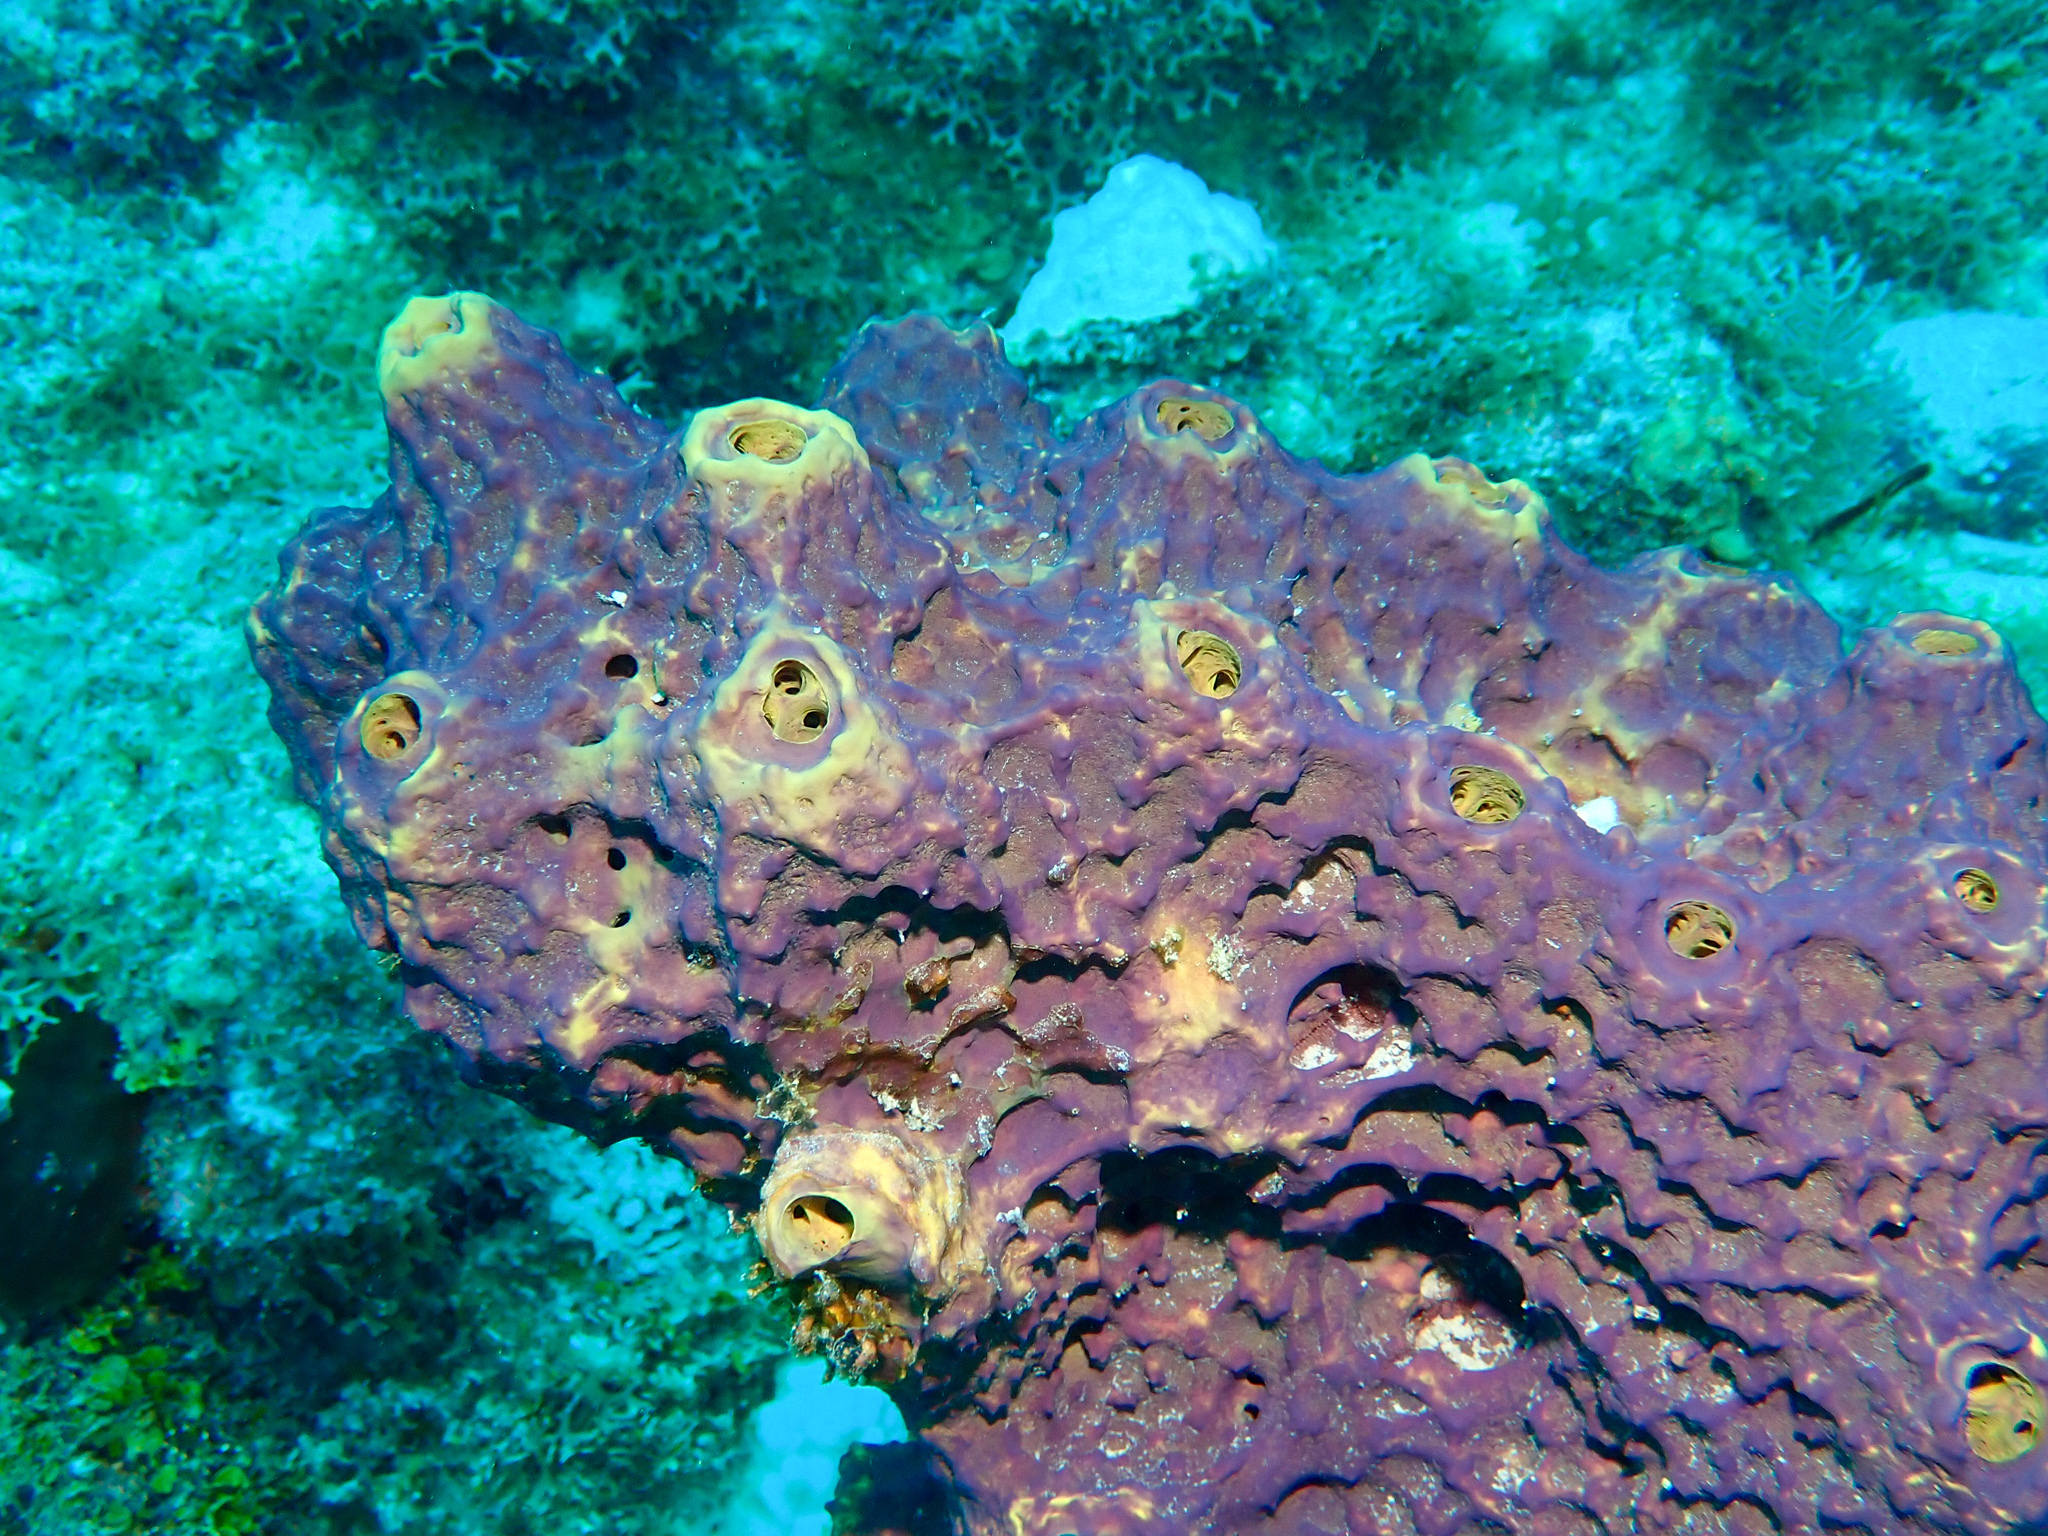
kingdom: Animalia
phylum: Porifera
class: Demospongiae
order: Verongiida
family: Aplysinidae
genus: Aiolochroia
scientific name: Aiolochroia crassa
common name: Branching tube sponge
